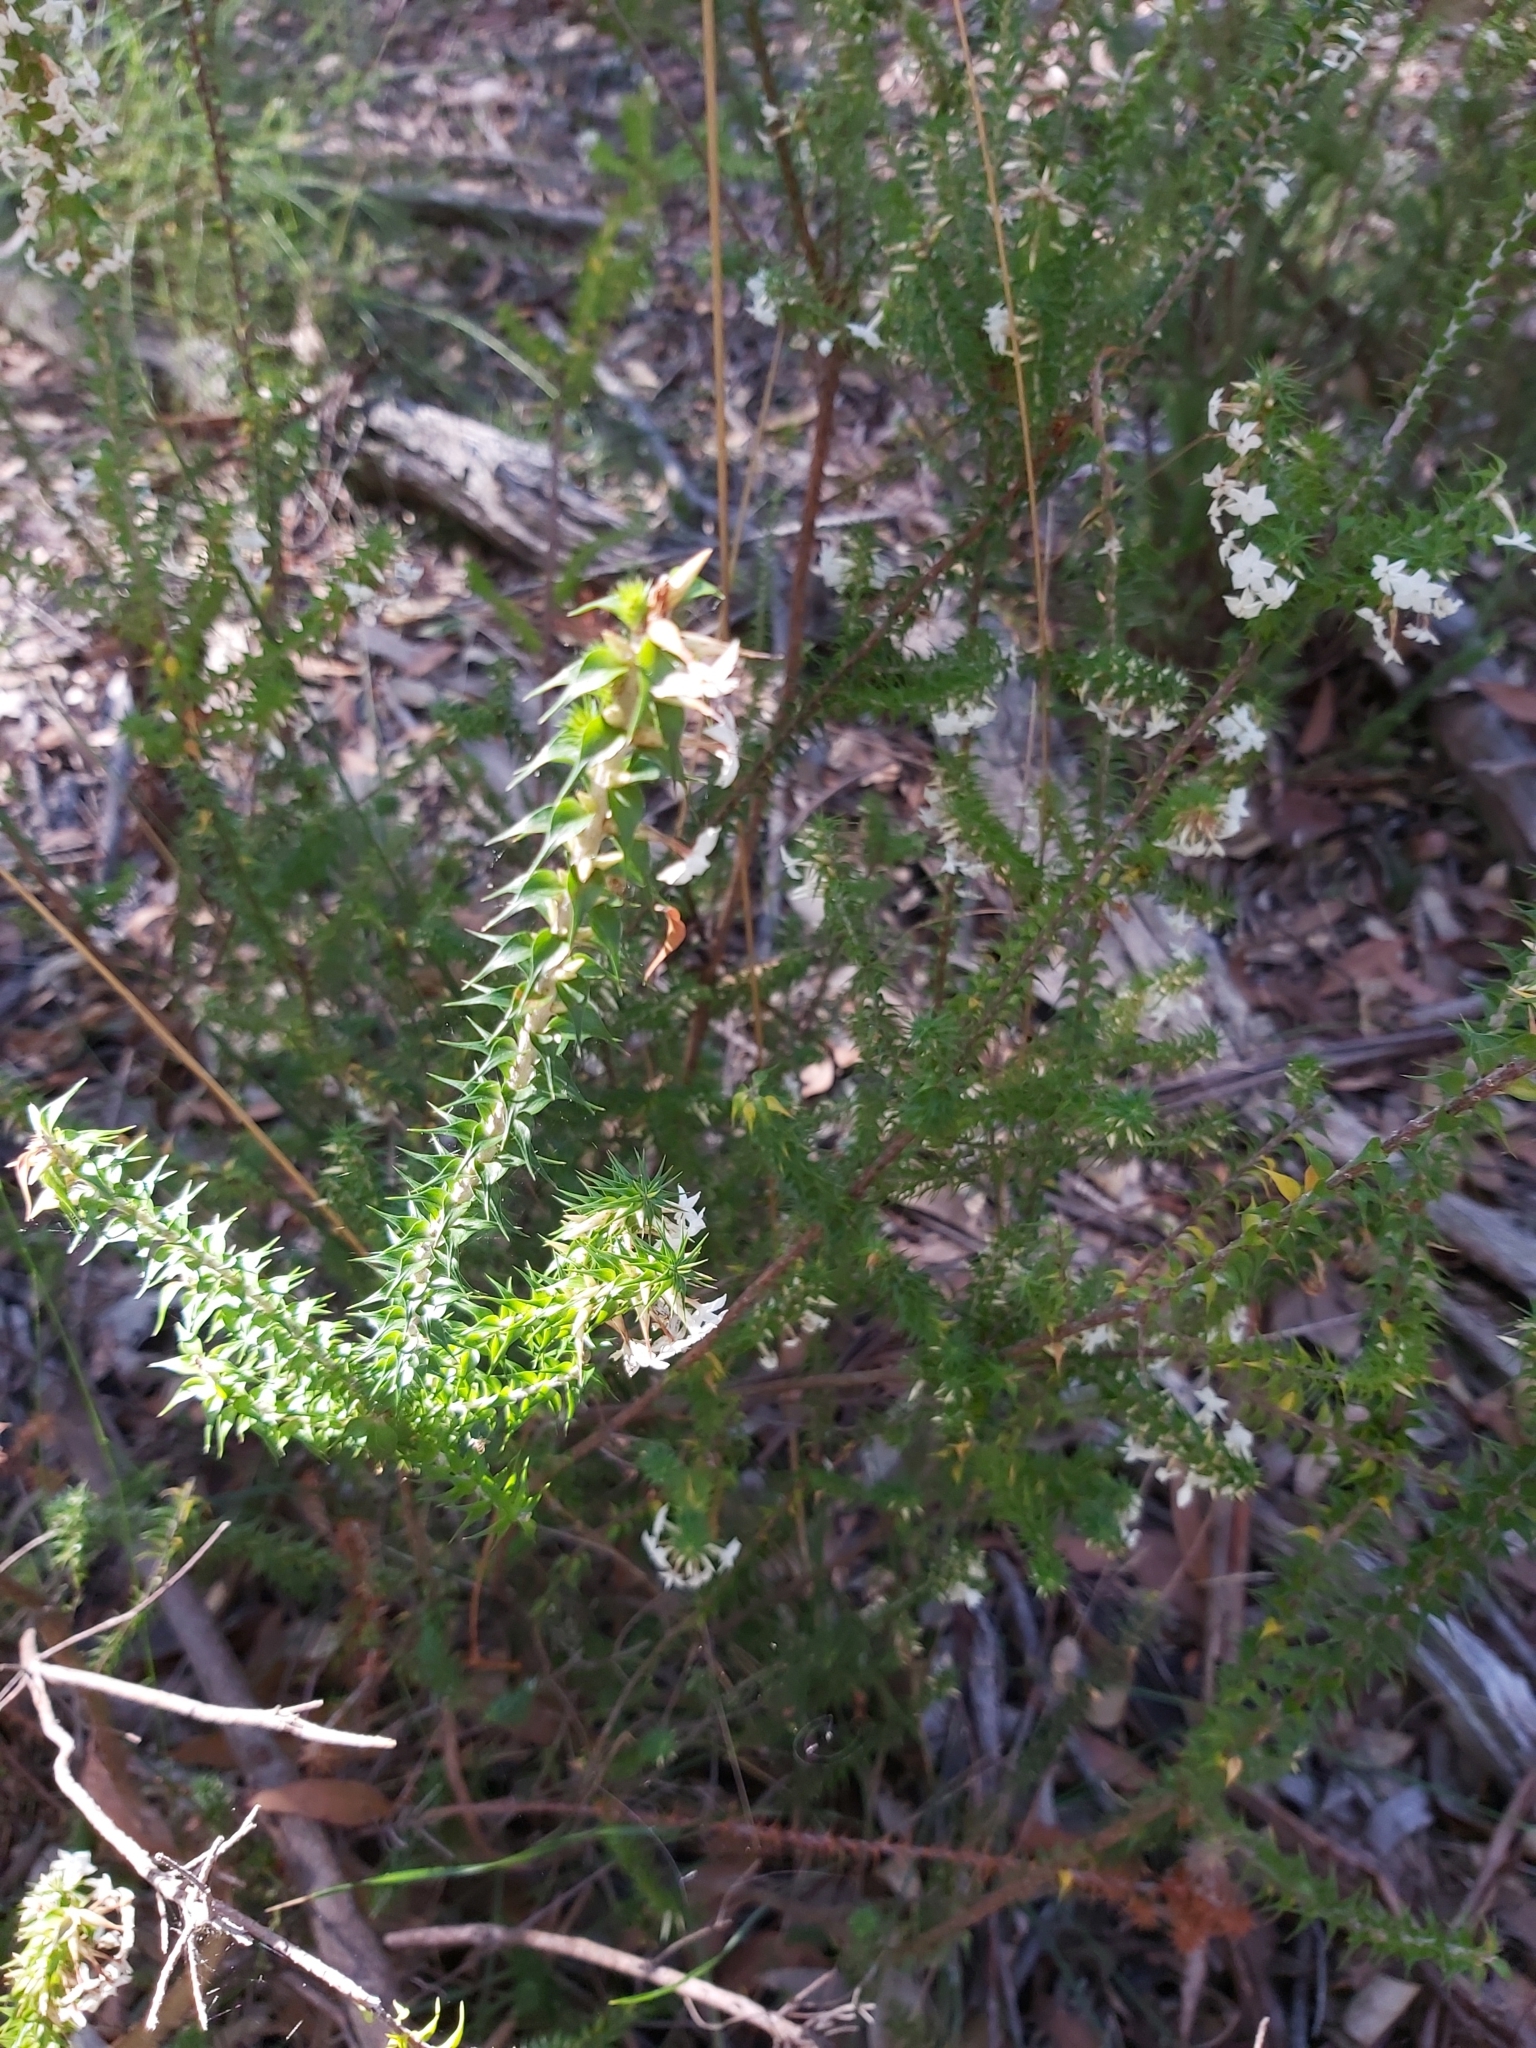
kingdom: Plantae
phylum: Tracheophyta
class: Magnoliopsida
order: Ericales
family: Ericaceae
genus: Woollsia
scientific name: Woollsia pungens
